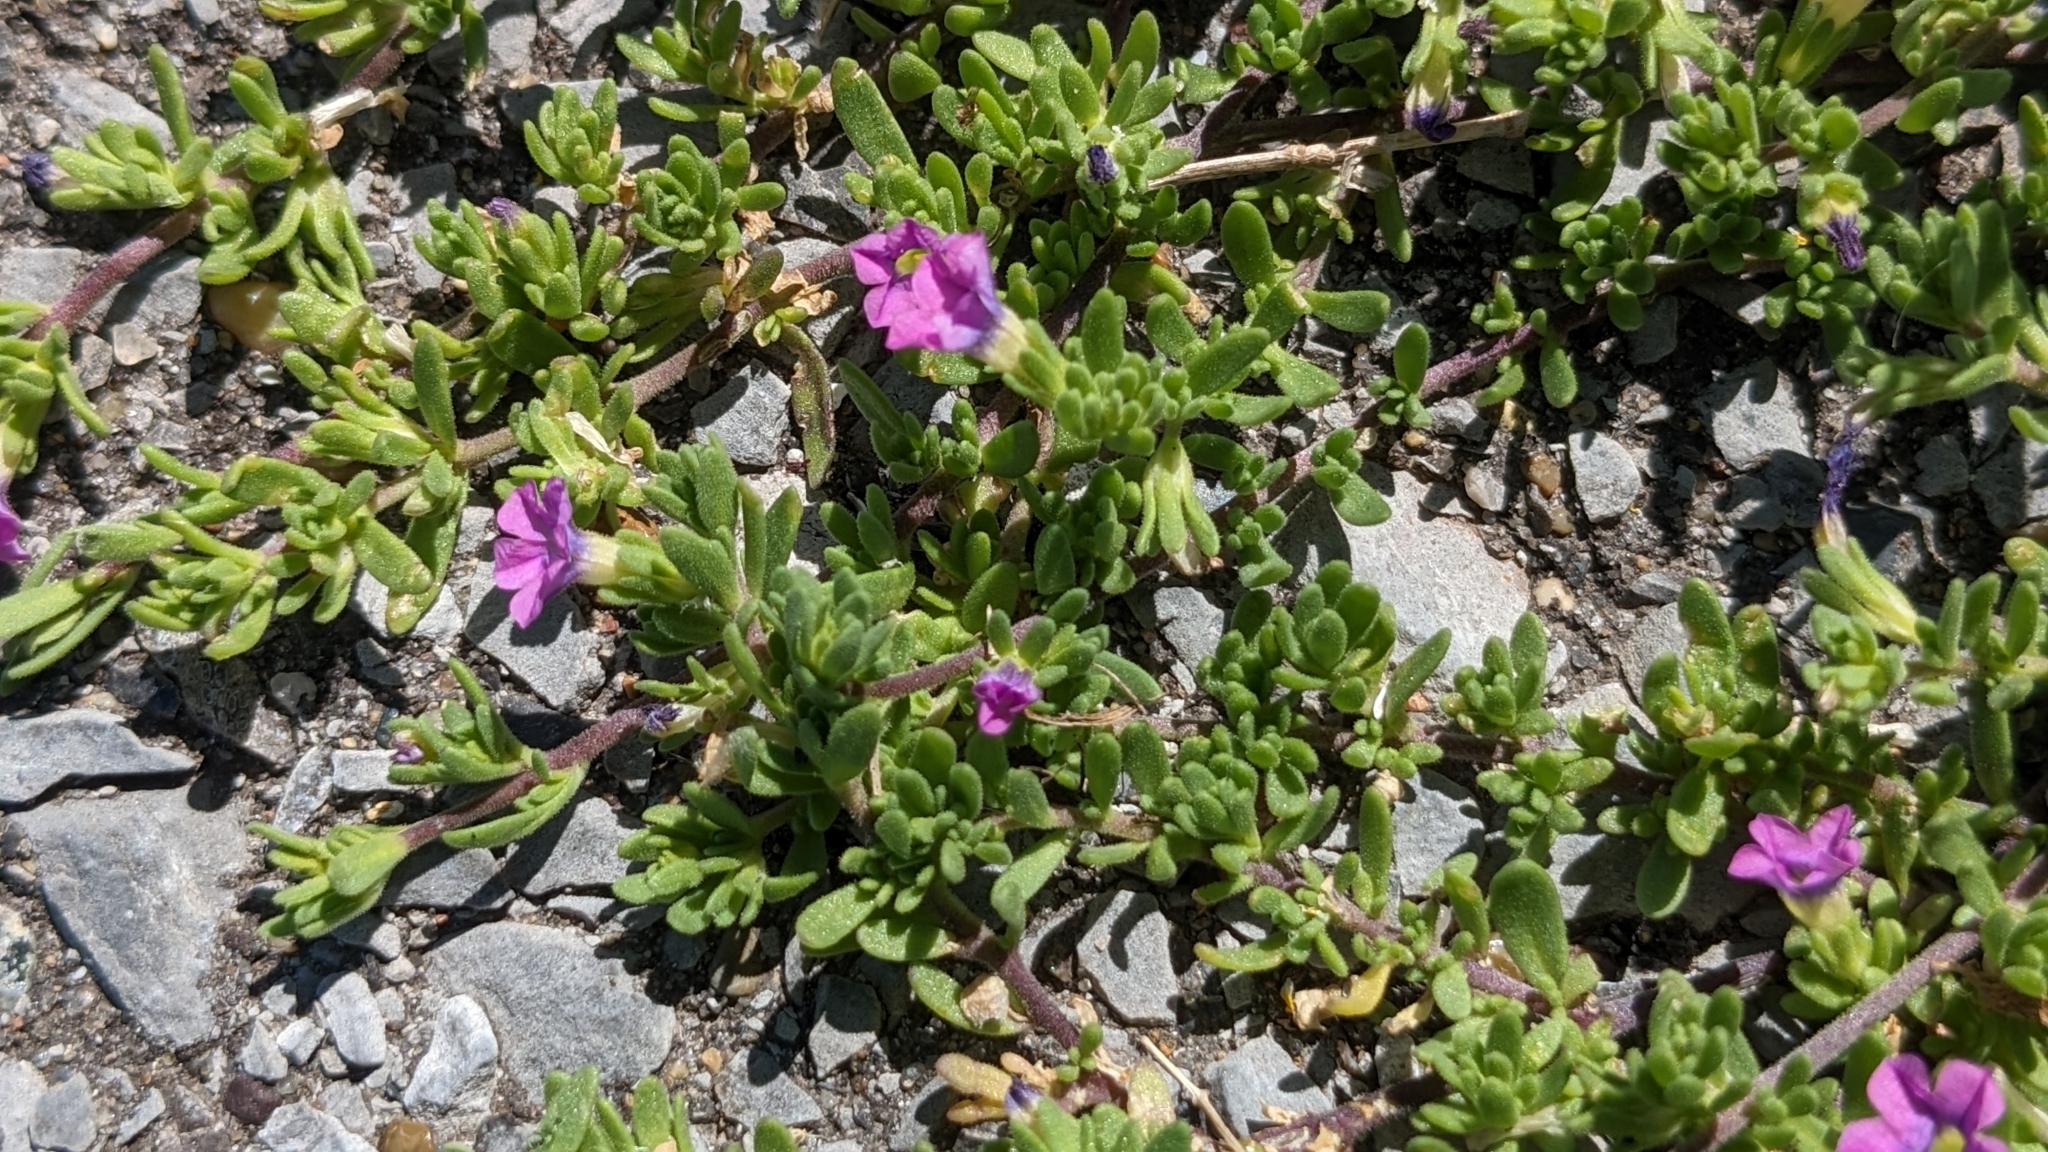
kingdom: Plantae
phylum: Tracheophyta
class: Magnoliopsida
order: Solanales
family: Solanaceae
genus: Calibrachoa
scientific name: Calibrachoa parviflora
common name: Seaside petunia
